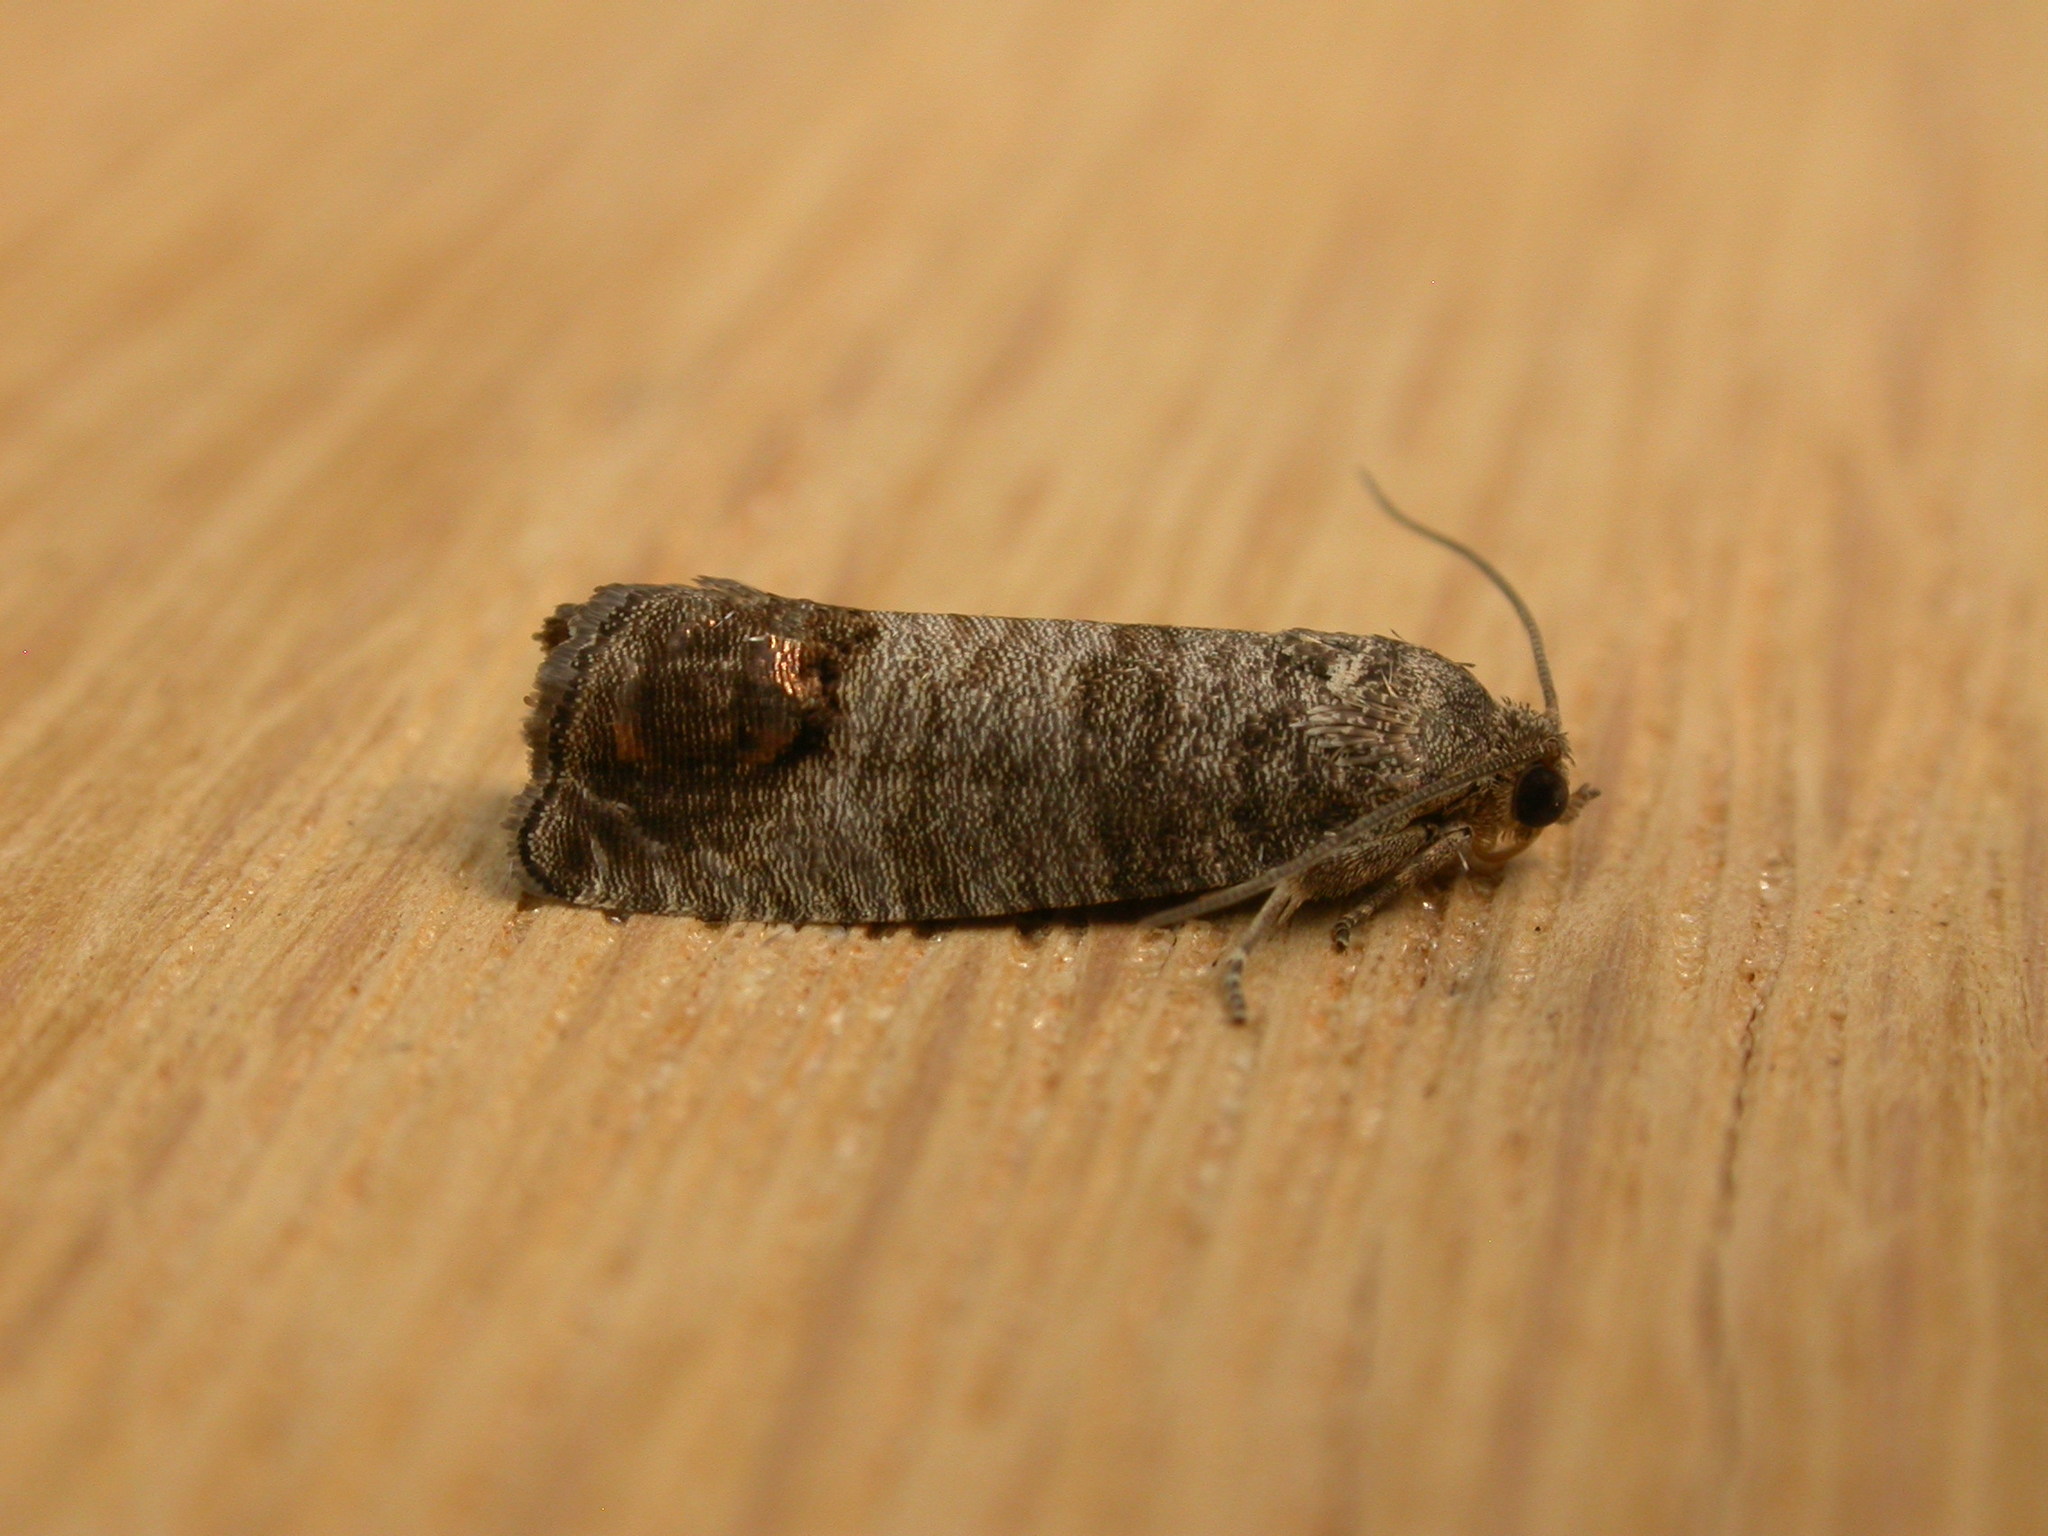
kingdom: Animalia
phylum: Arthropoda
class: Insecta
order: Lepidoptera
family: Tortricidae
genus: Cydia
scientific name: Cydia pomonella
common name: Codling moth
